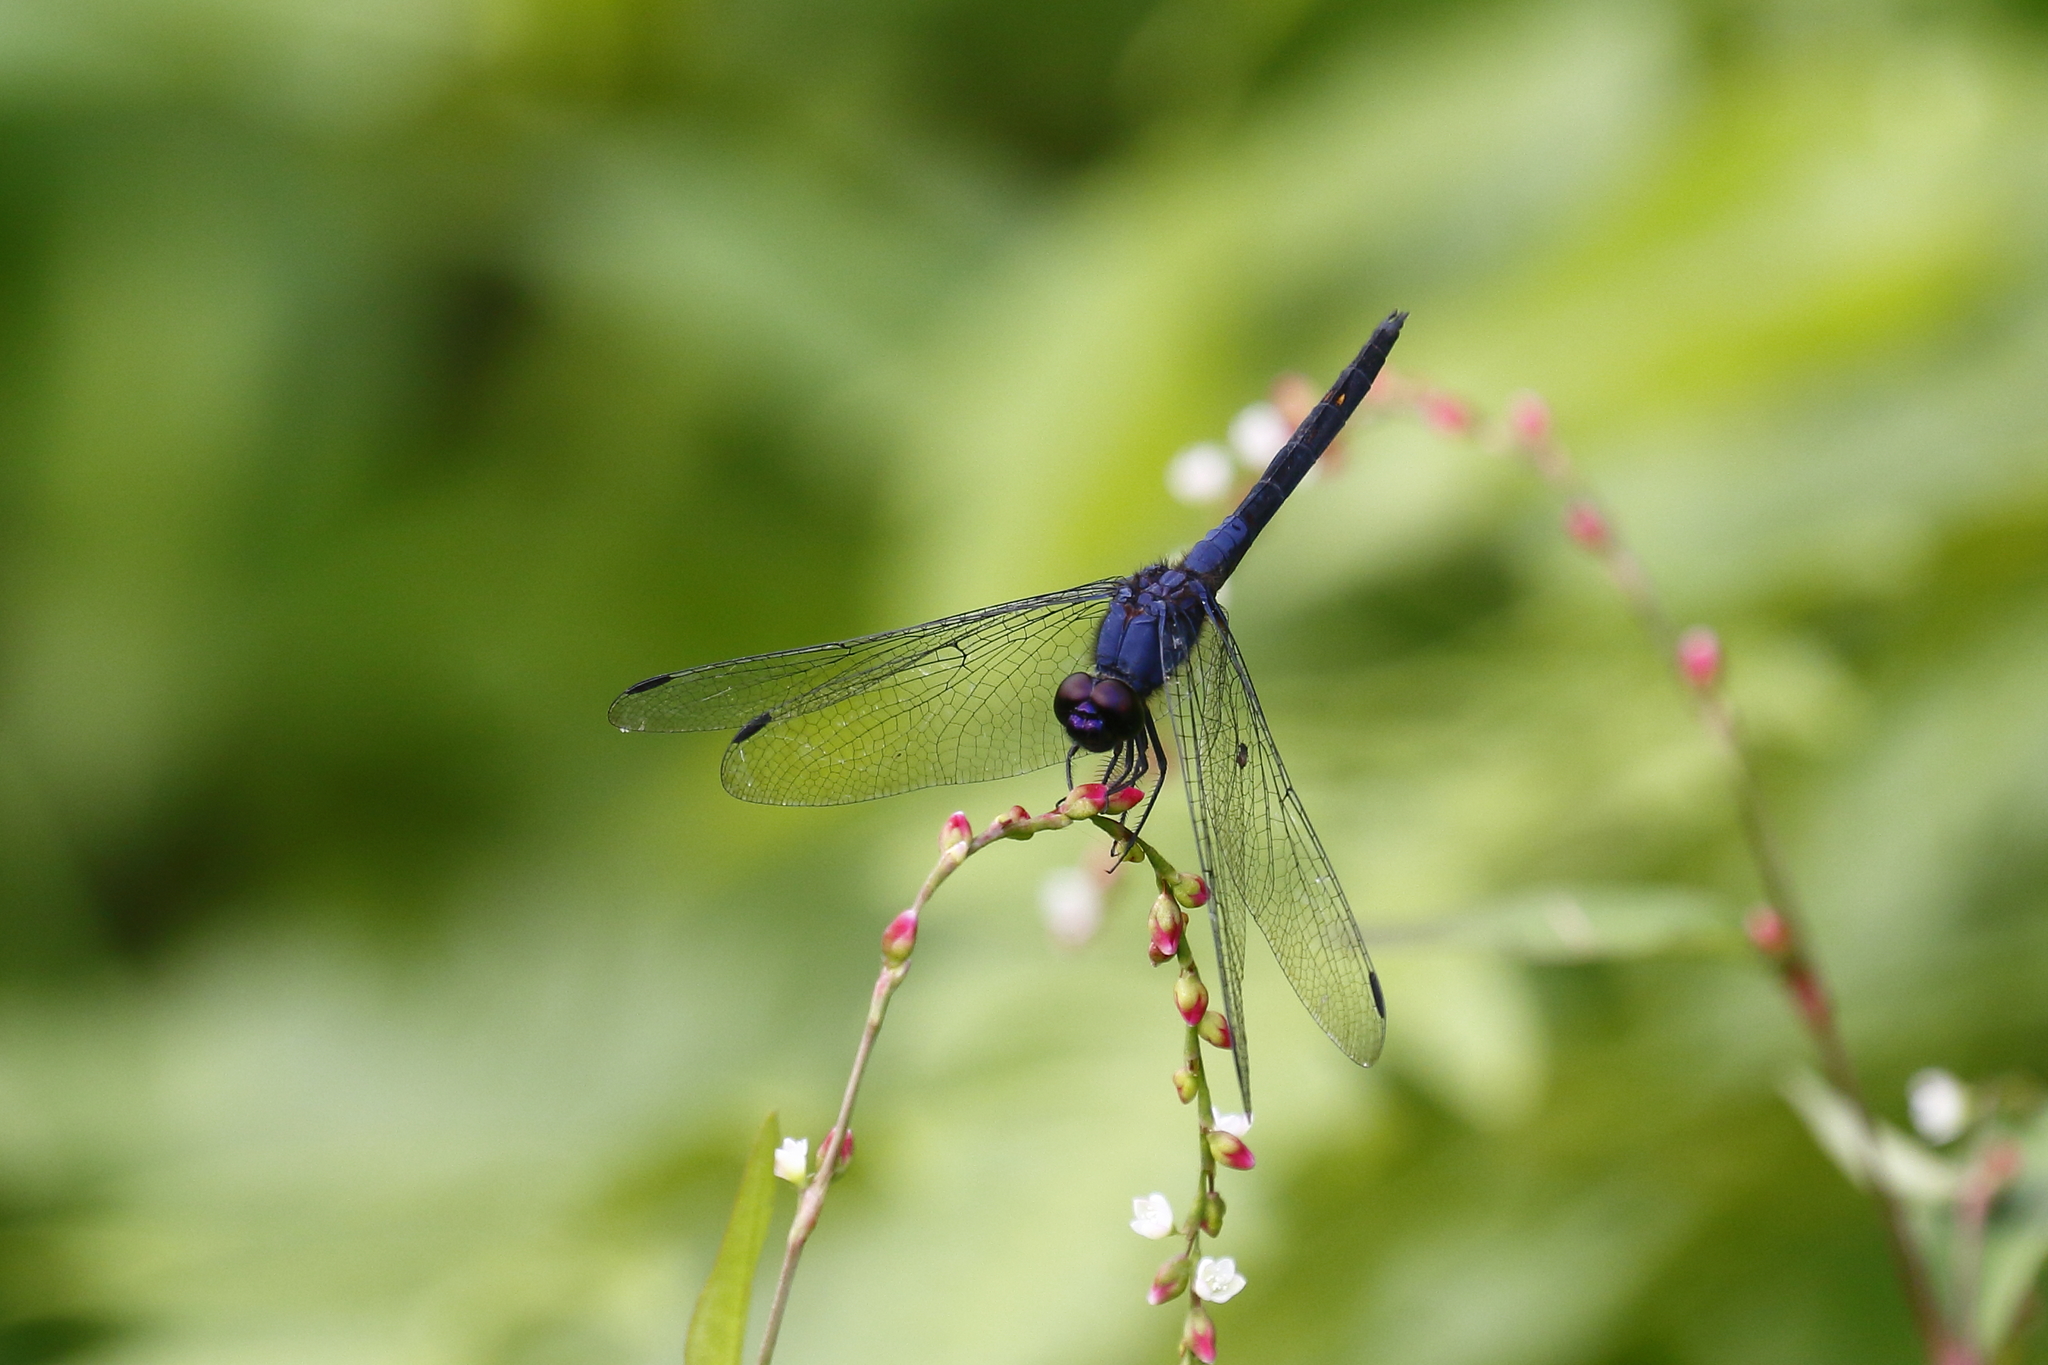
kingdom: Animalia
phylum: Arthropoda
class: Insecta
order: Odonata
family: Libellulidae
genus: Trithemis
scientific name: Trithemis festiva
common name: Indigo dropwing
